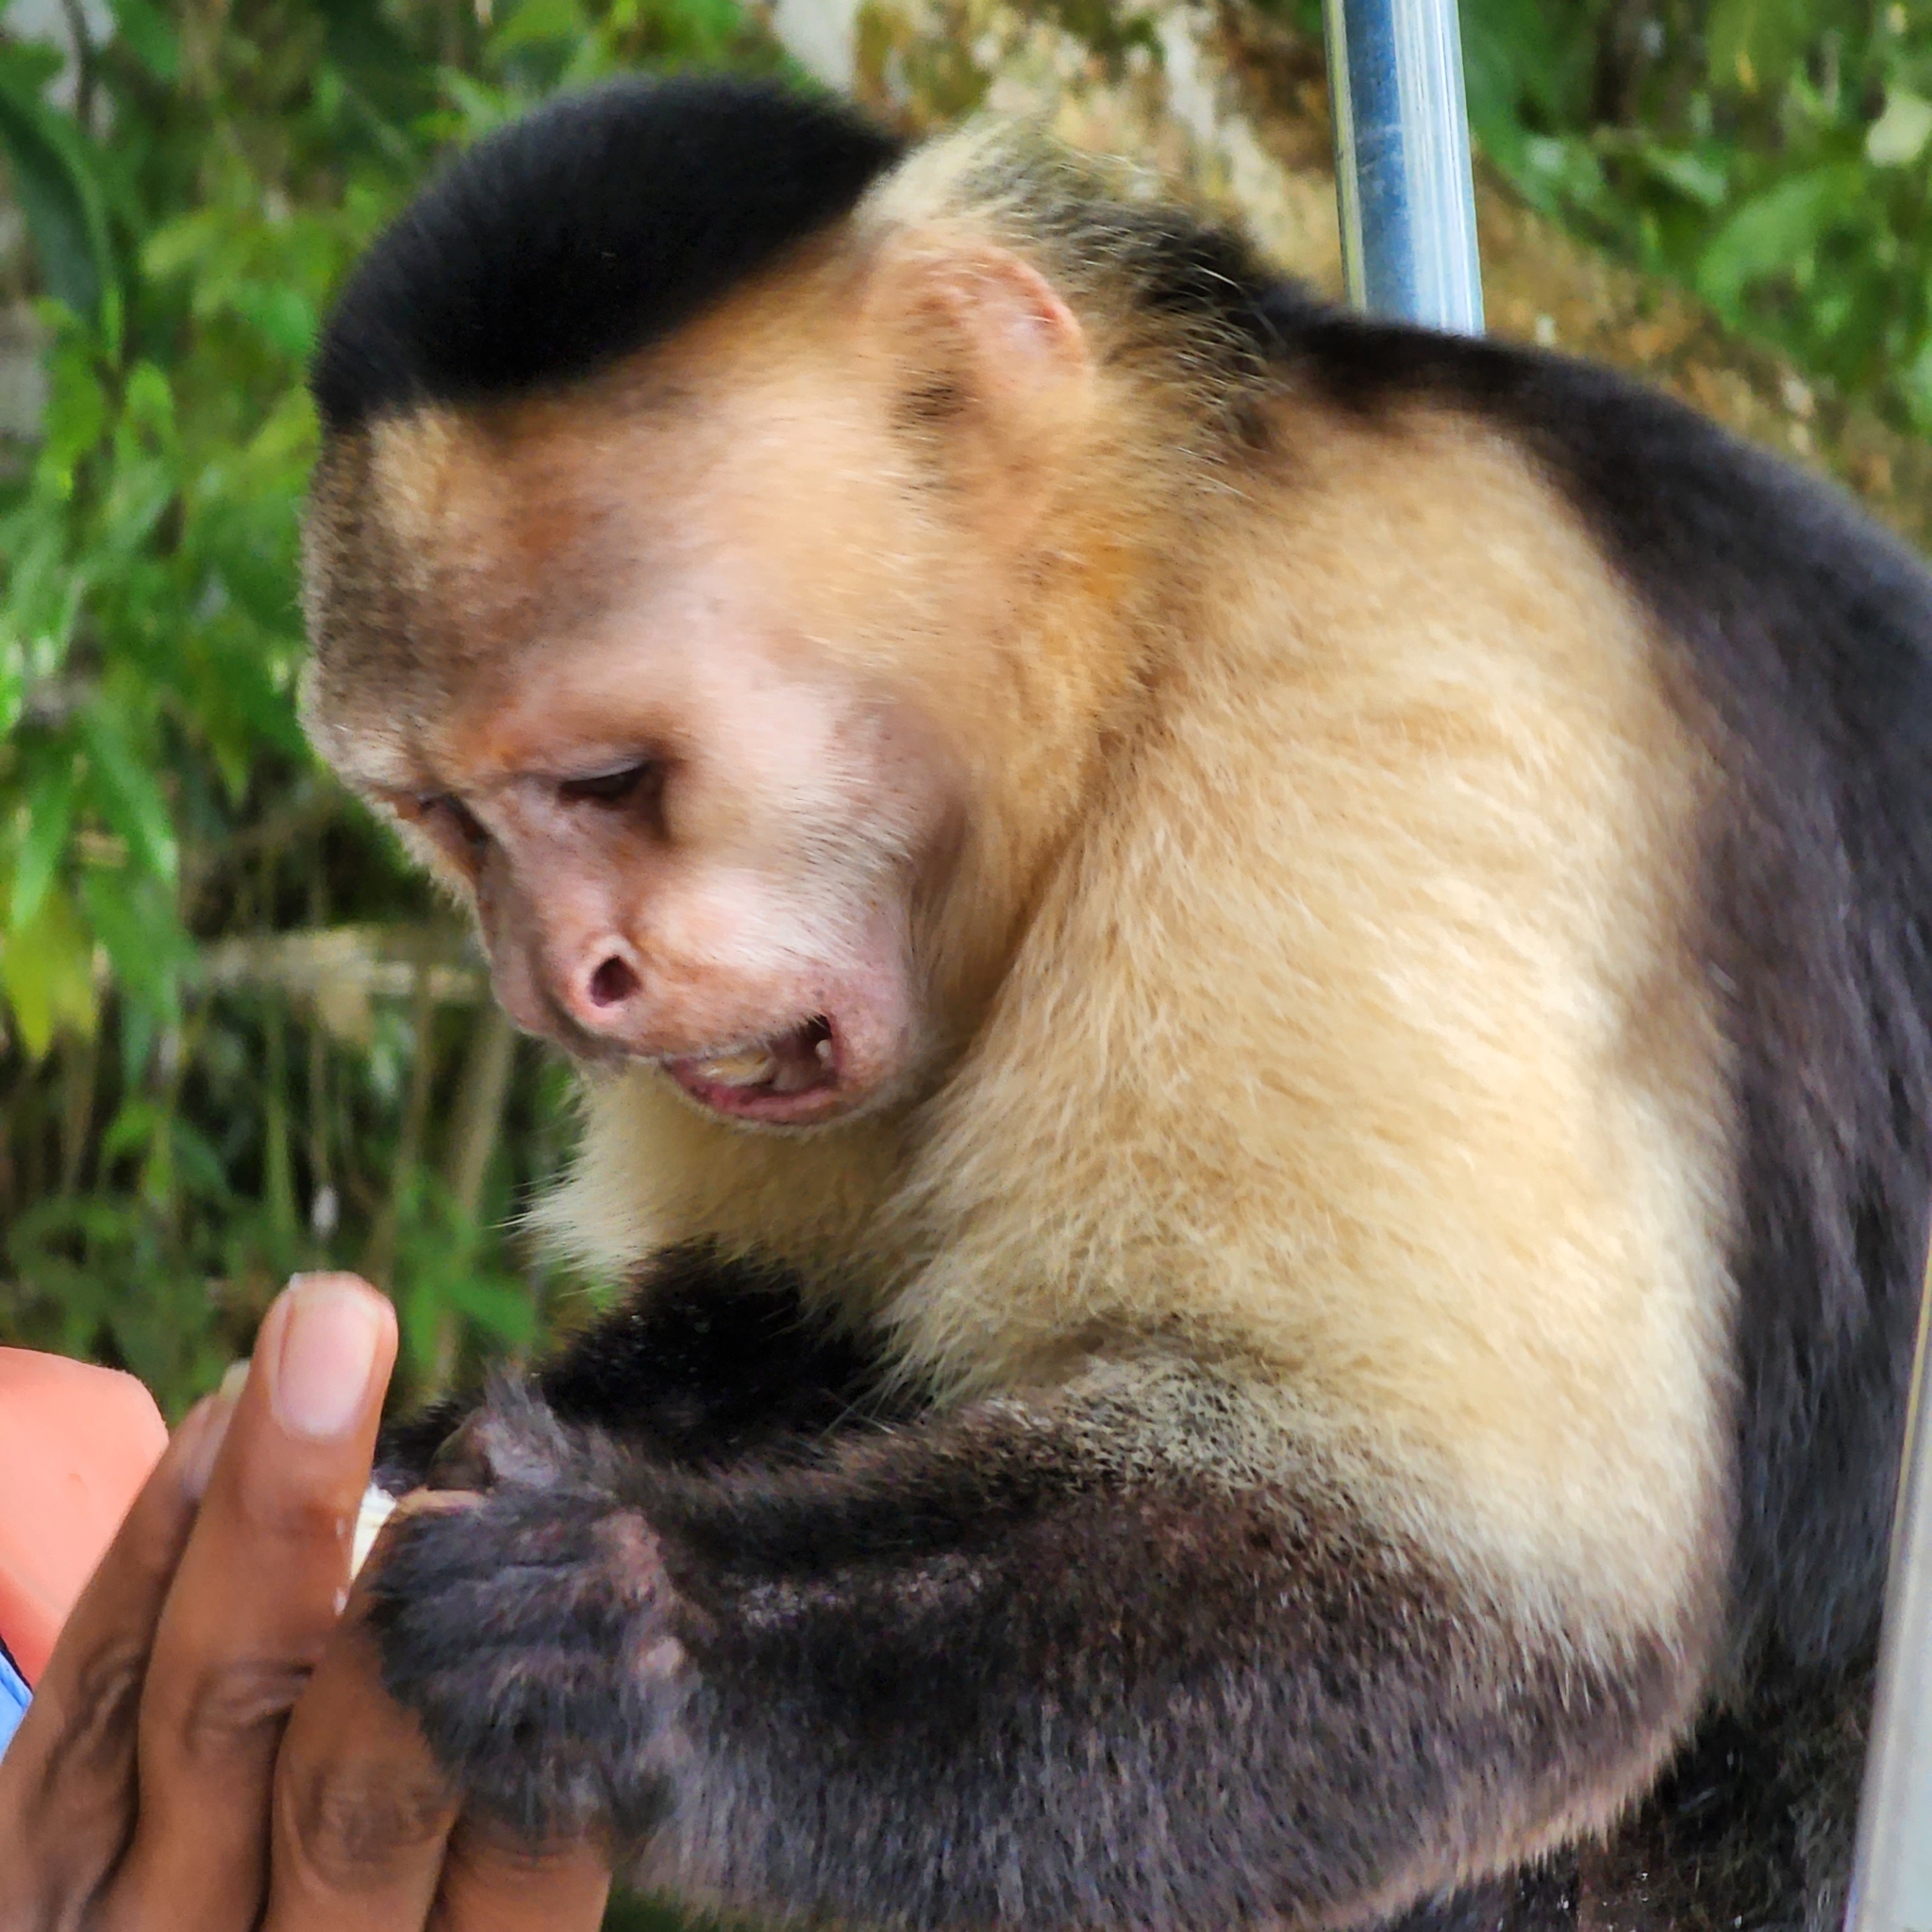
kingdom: Animalia
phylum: Chordata
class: Mammalia
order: Primates
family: Cebidae
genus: Cebus
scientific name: Cebus imitator
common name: Panamanian white-faced capuchin
